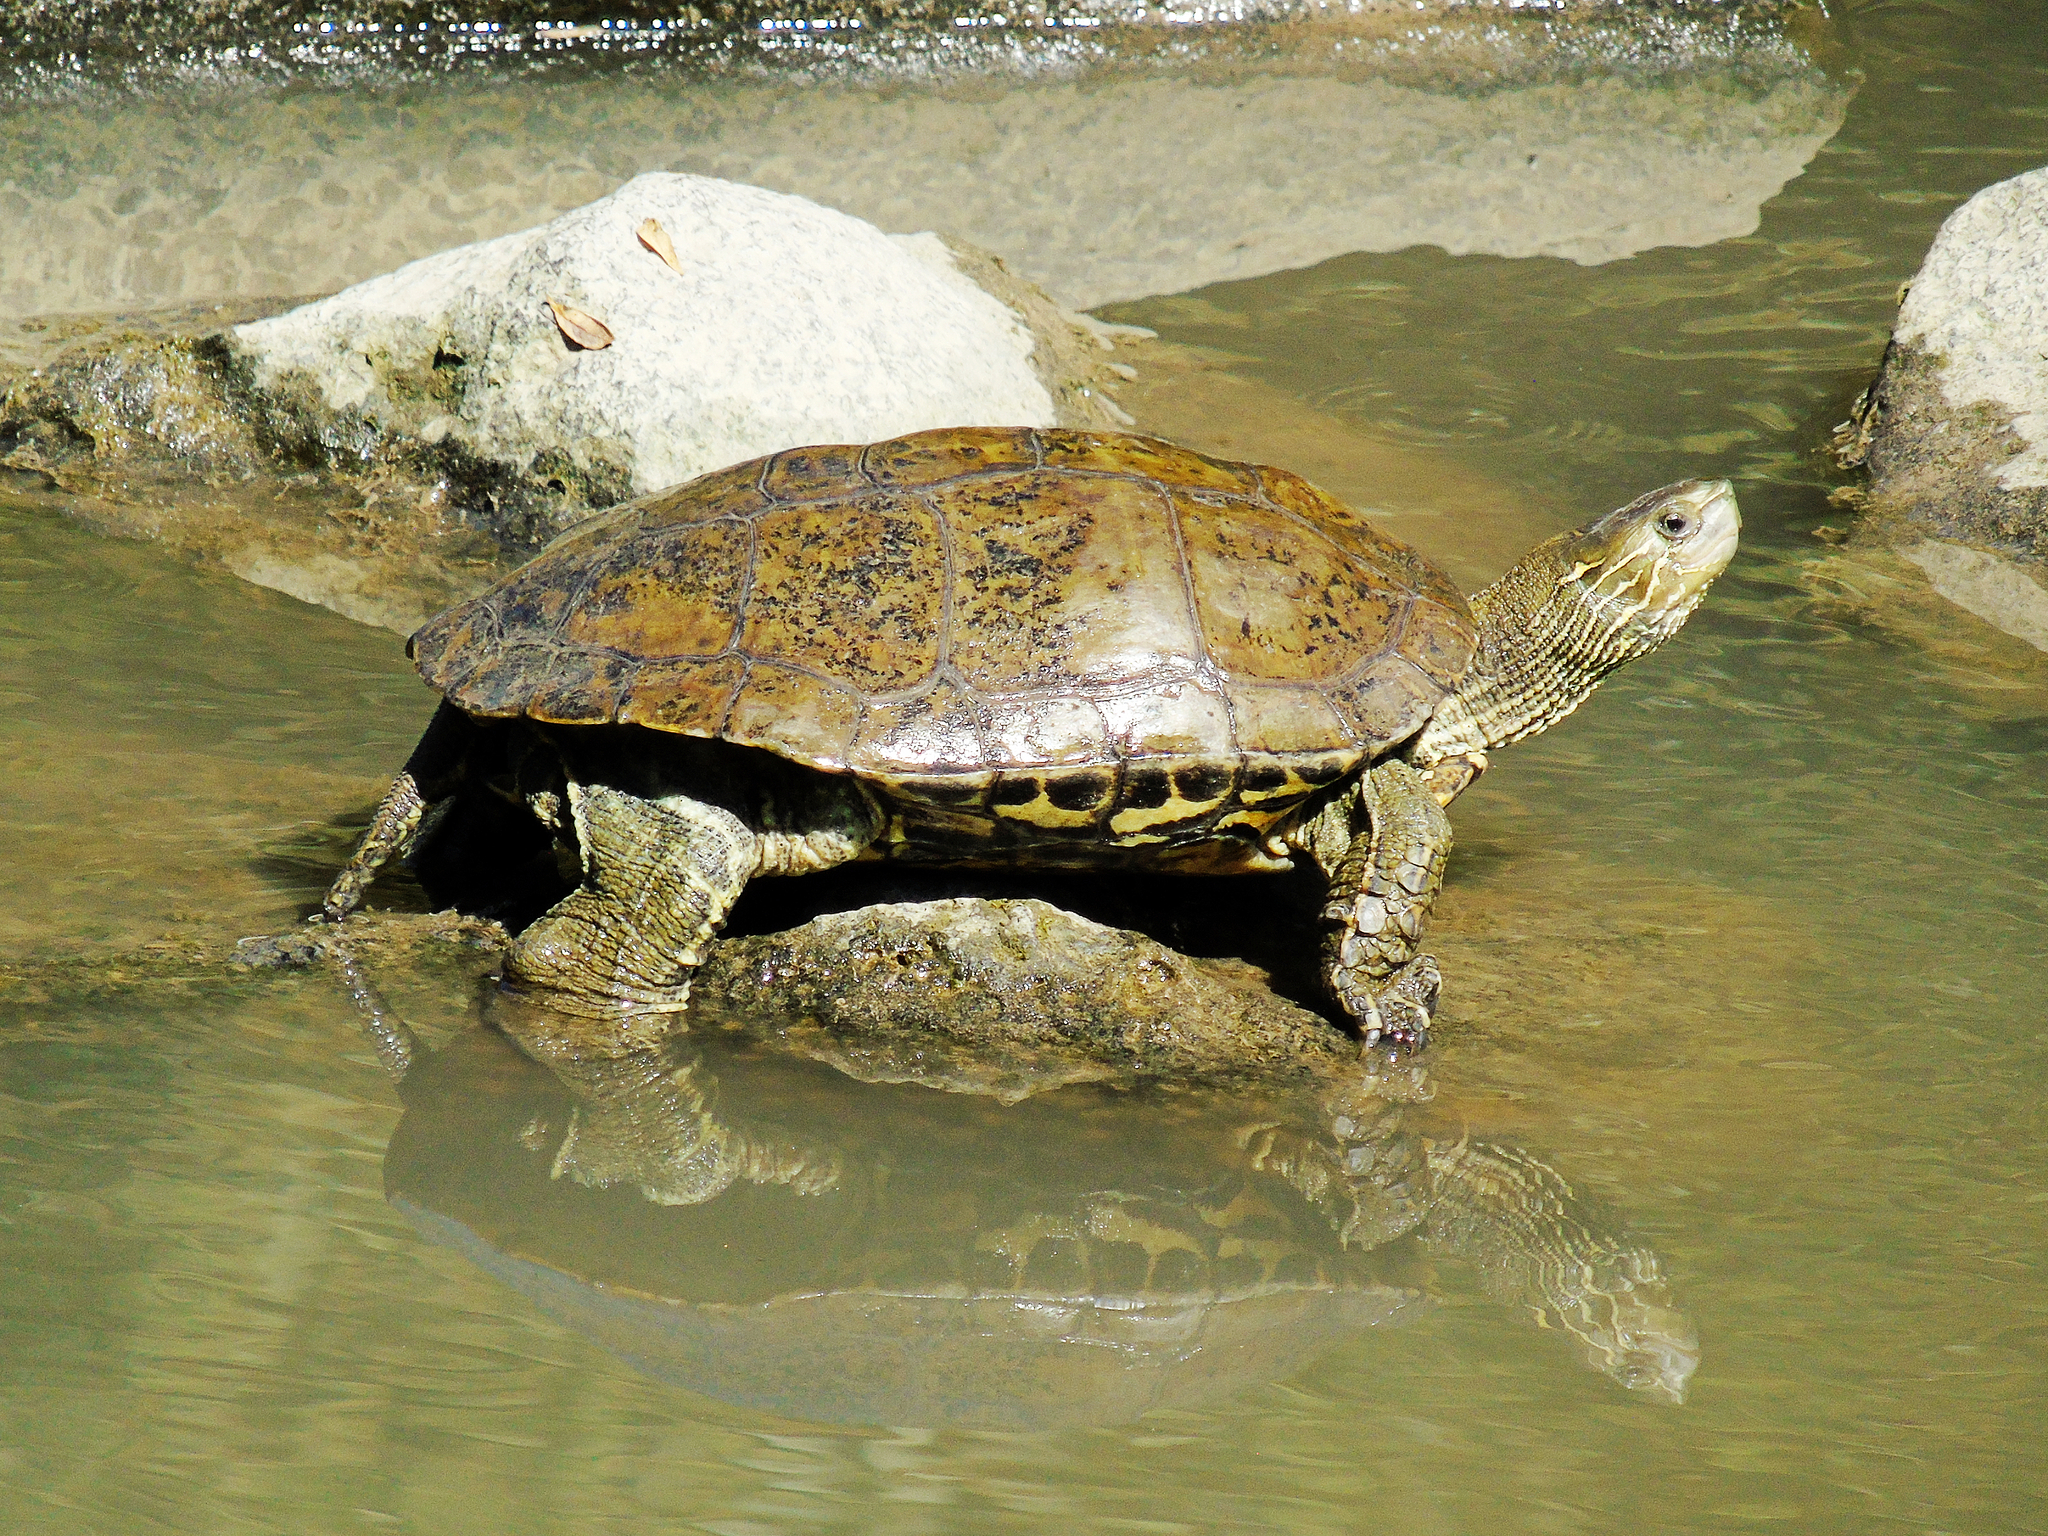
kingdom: Animalia
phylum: Chordata
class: Testudines
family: Geoemydidae
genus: Mauremys
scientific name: Mauremys caspica
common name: Caspian turtle
